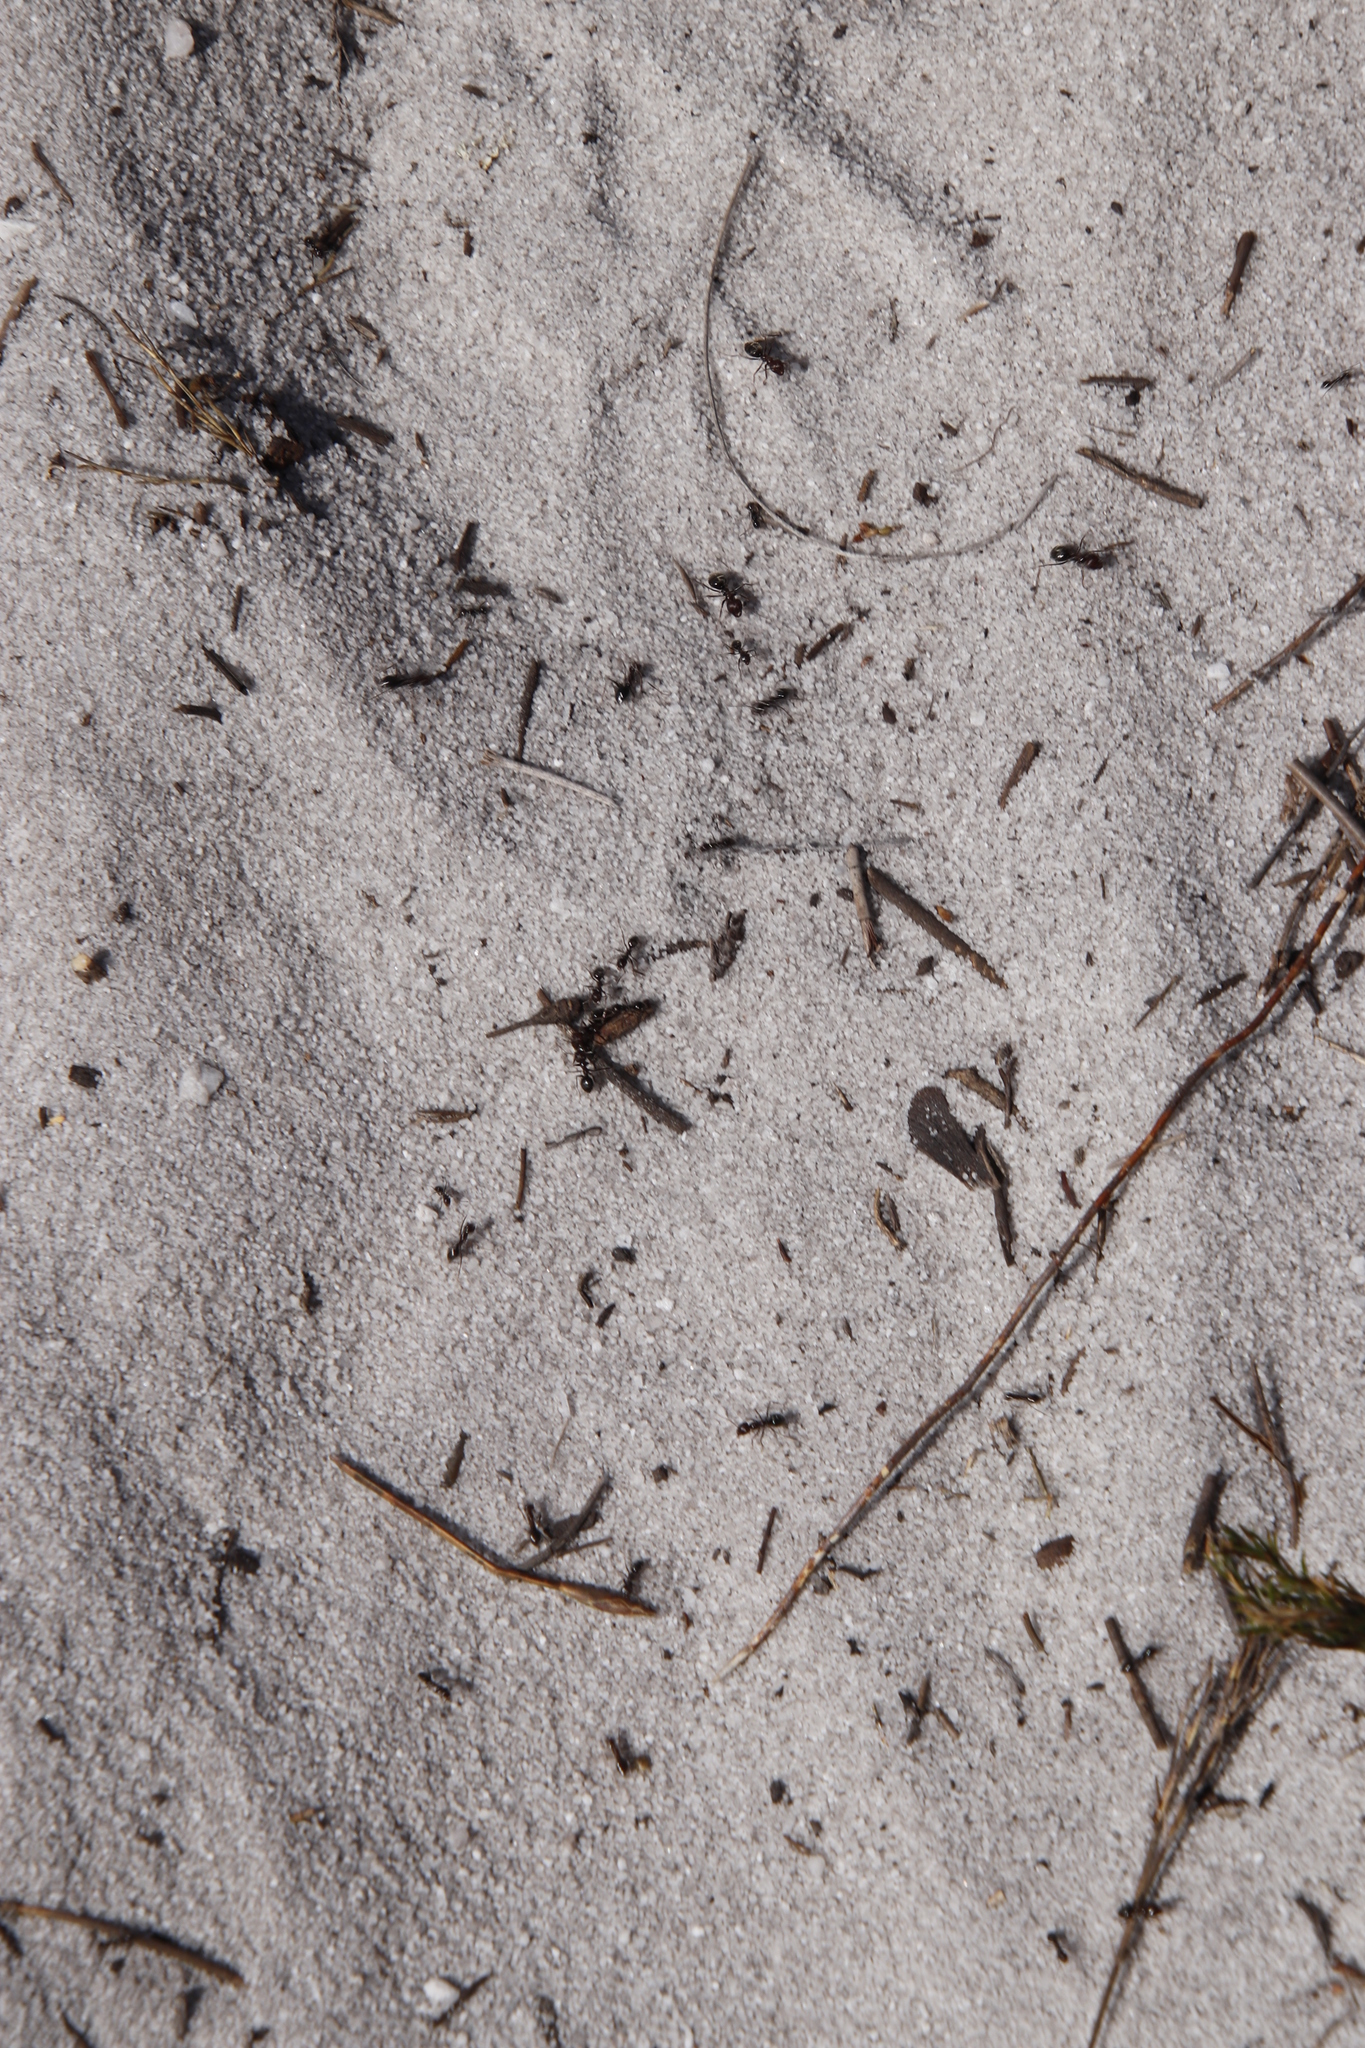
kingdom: Animalia
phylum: Arthropoda
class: Insecta
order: Hymenoptera
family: Formicidae
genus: Anoplolepis
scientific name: Anoplolepis steingroeveri
